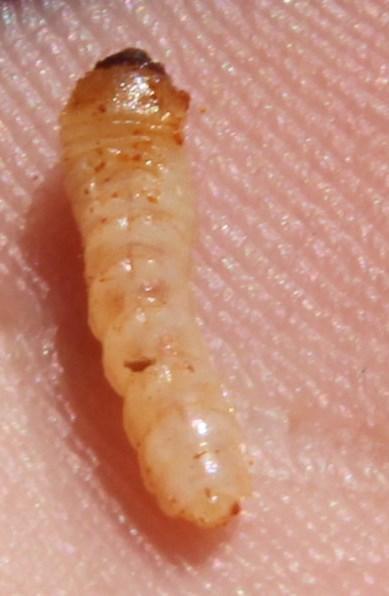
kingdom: Animalia
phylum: Arthropoda
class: Insecta
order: Coleoptera
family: Cerambycidae
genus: Phryneta
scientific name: Phryneta spinator
